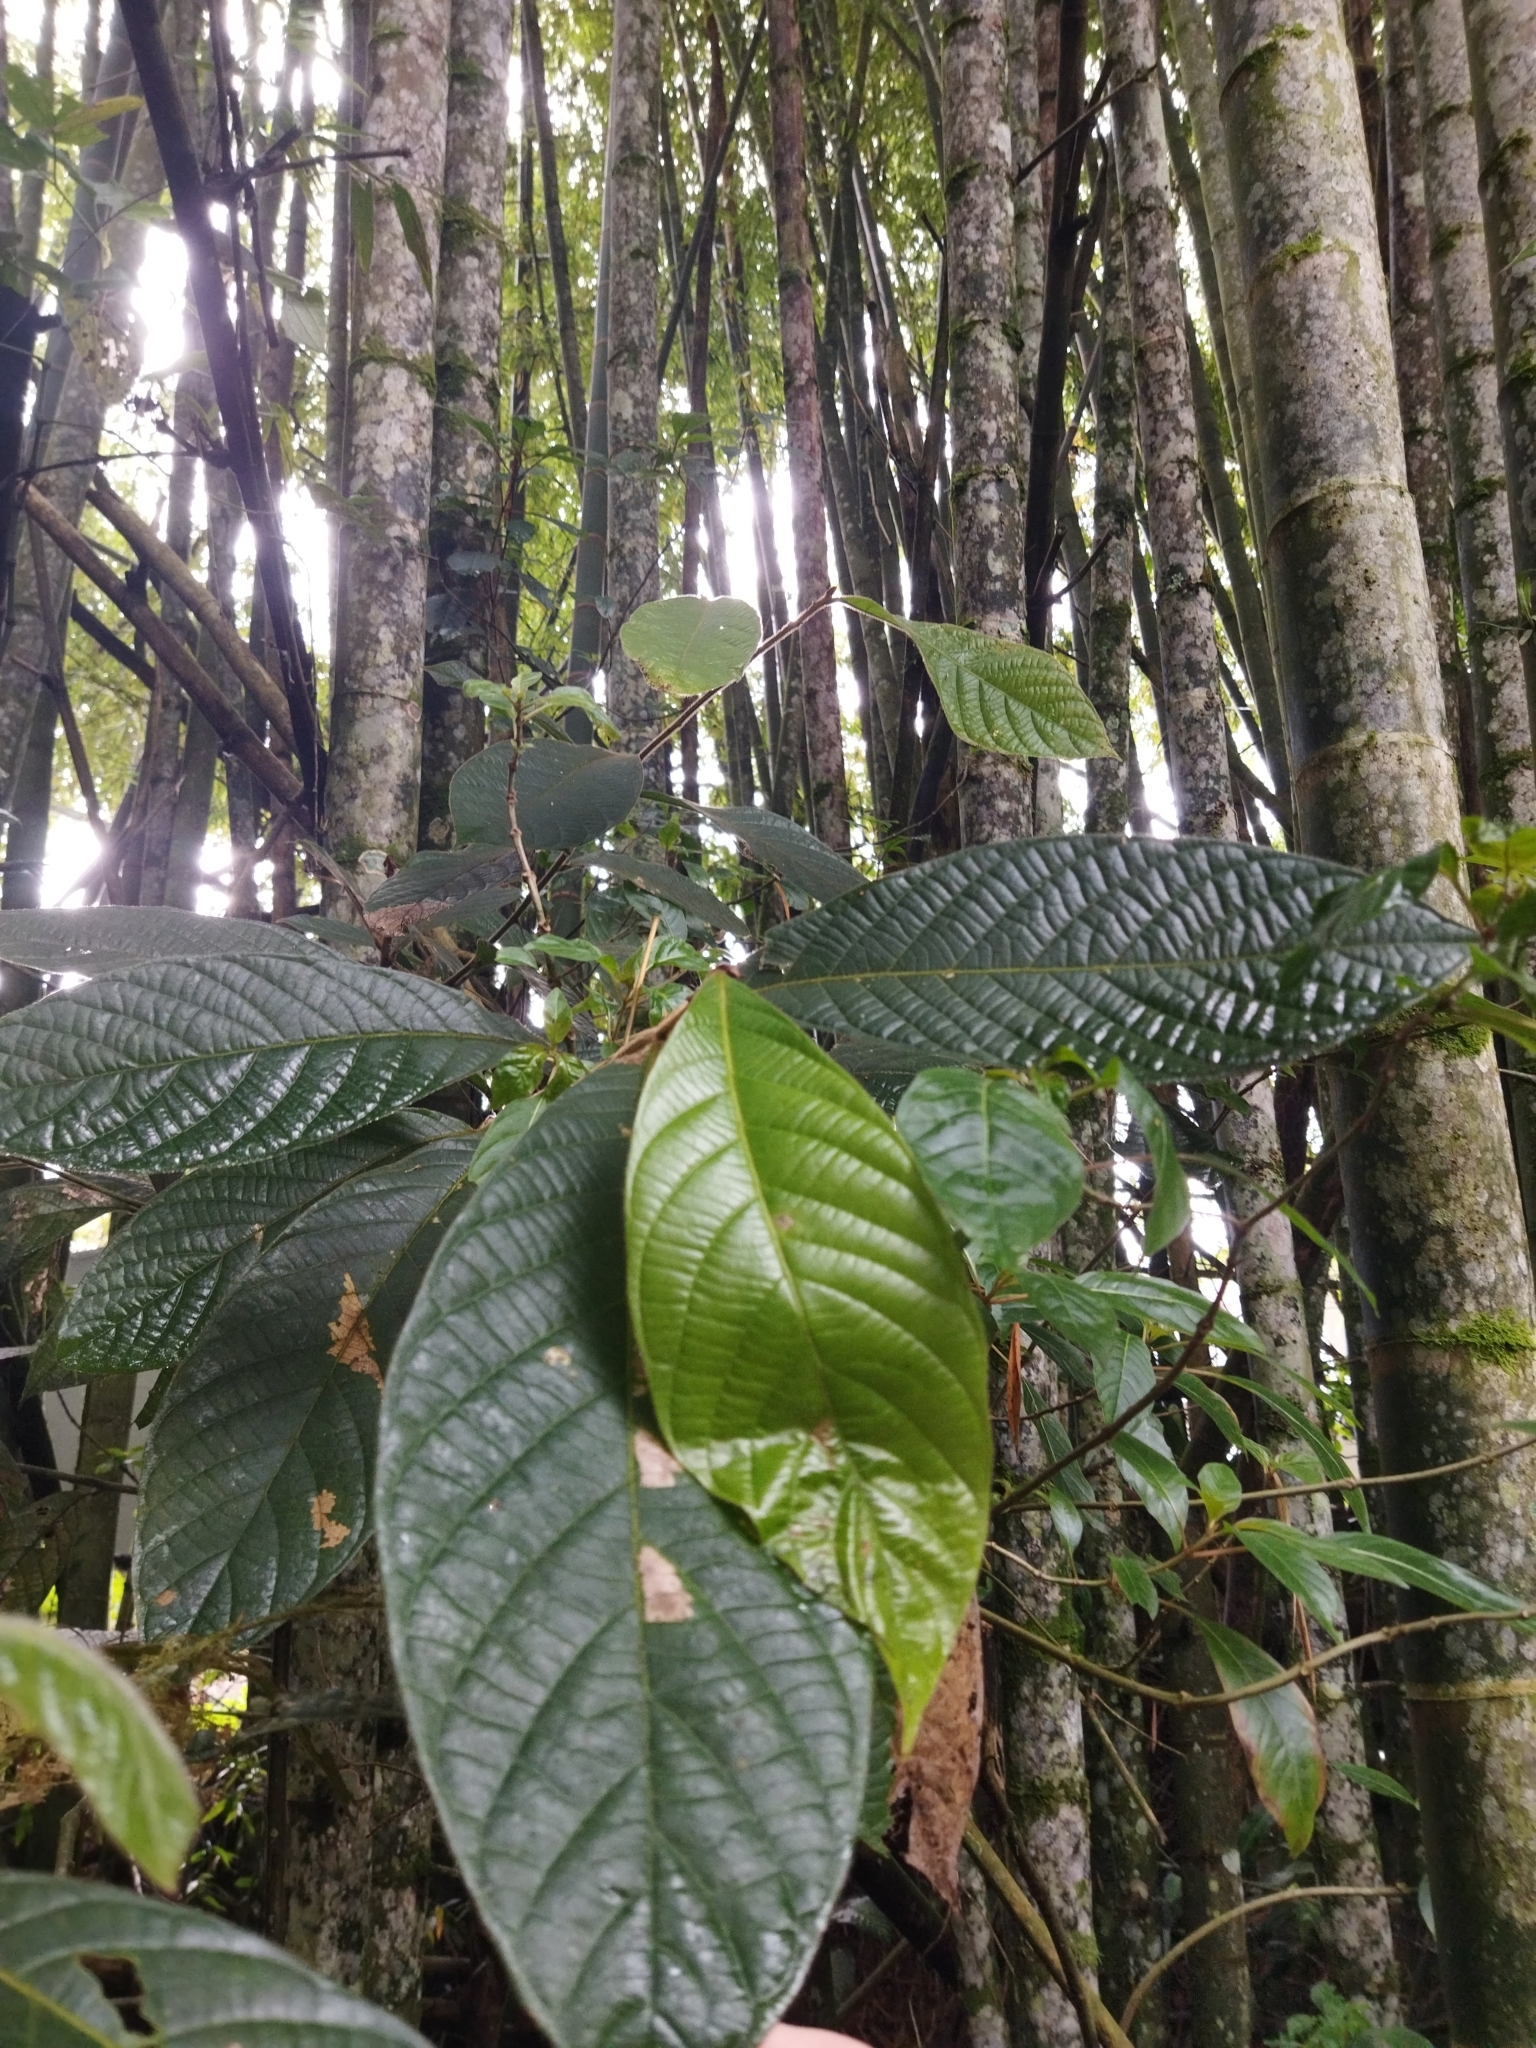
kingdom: Plantae
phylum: Tracheophyta
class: Magnoliopsida
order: Laurales
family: Lauraceae
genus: Nectandra
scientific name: Nectandra
